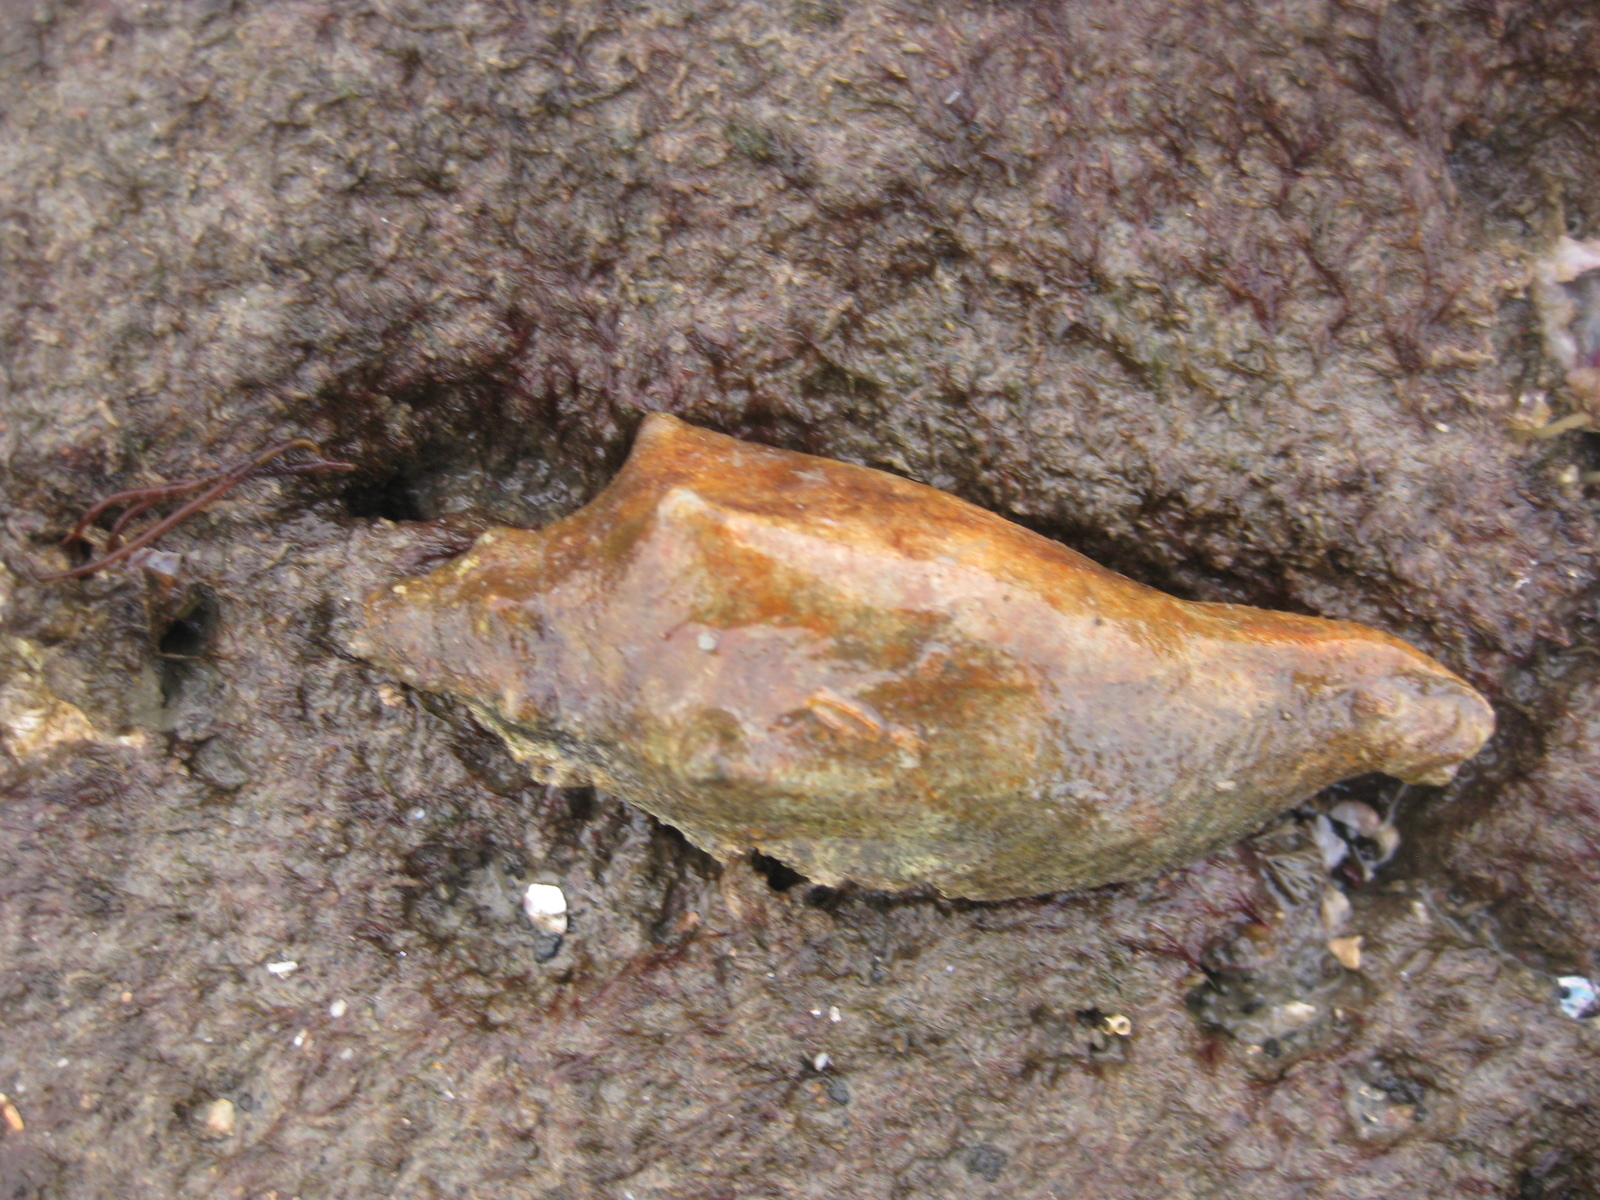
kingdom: Animalia
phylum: Mollusca
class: Gastropoda
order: Neogastropoda
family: Volutidae
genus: Alcithoe
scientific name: Alcithoe arabica
